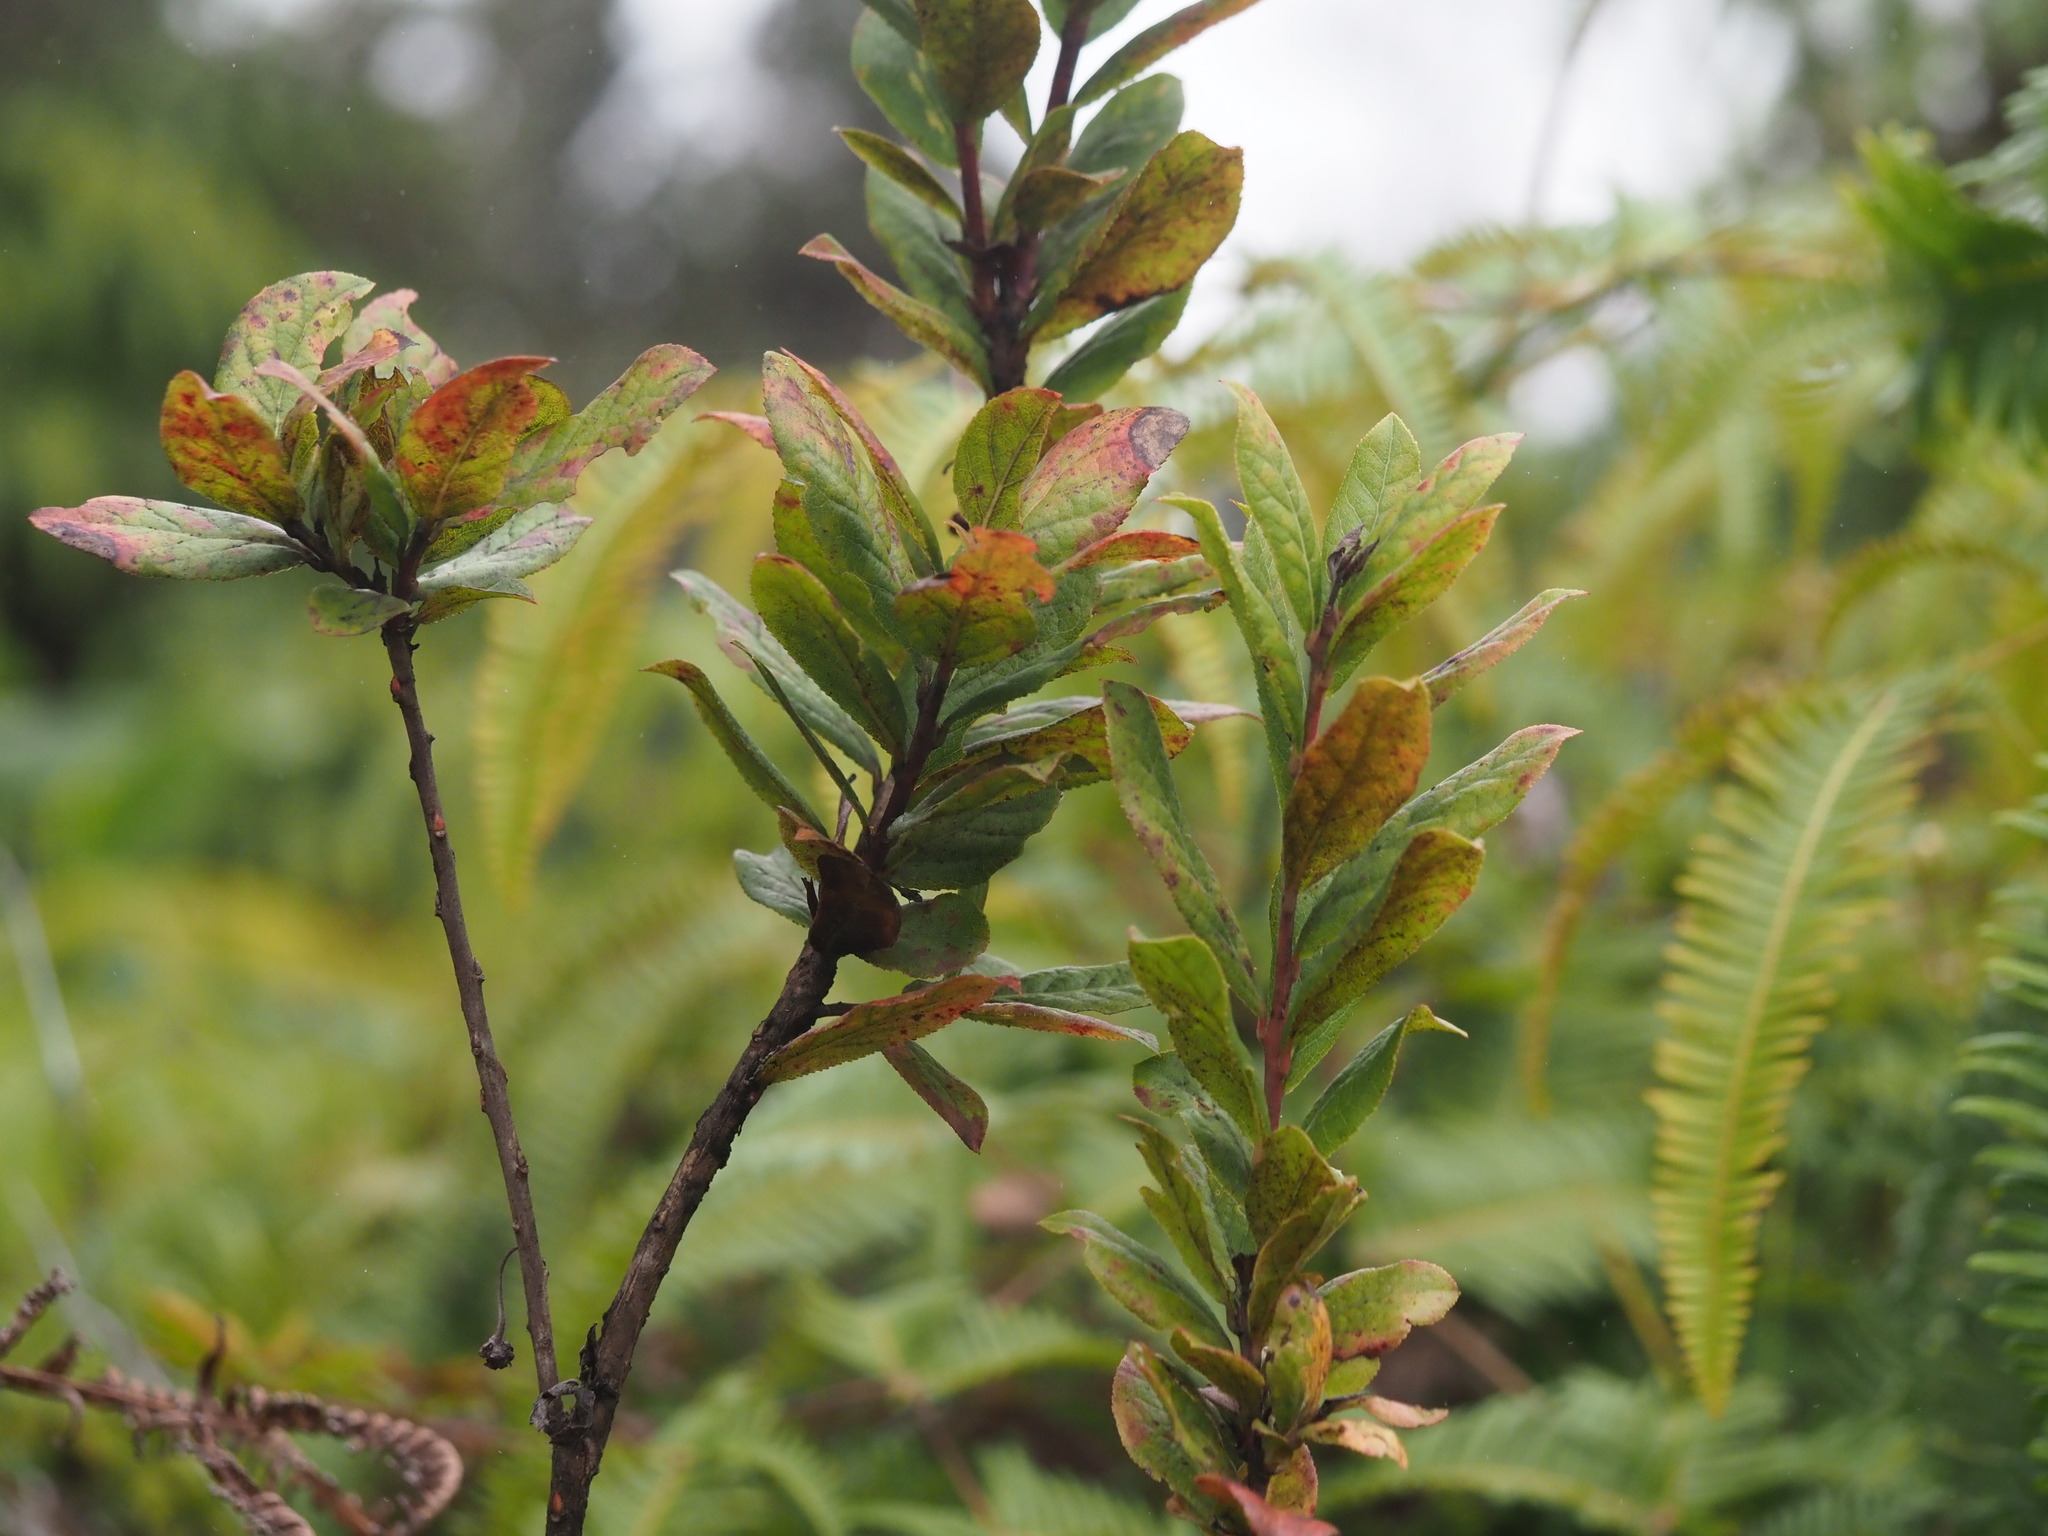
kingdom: Plantae
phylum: Tracheophyta
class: Magnoliopsida
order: Ericales
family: Ericaceae
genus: Vaccinium
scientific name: Vaccinium calycinum
